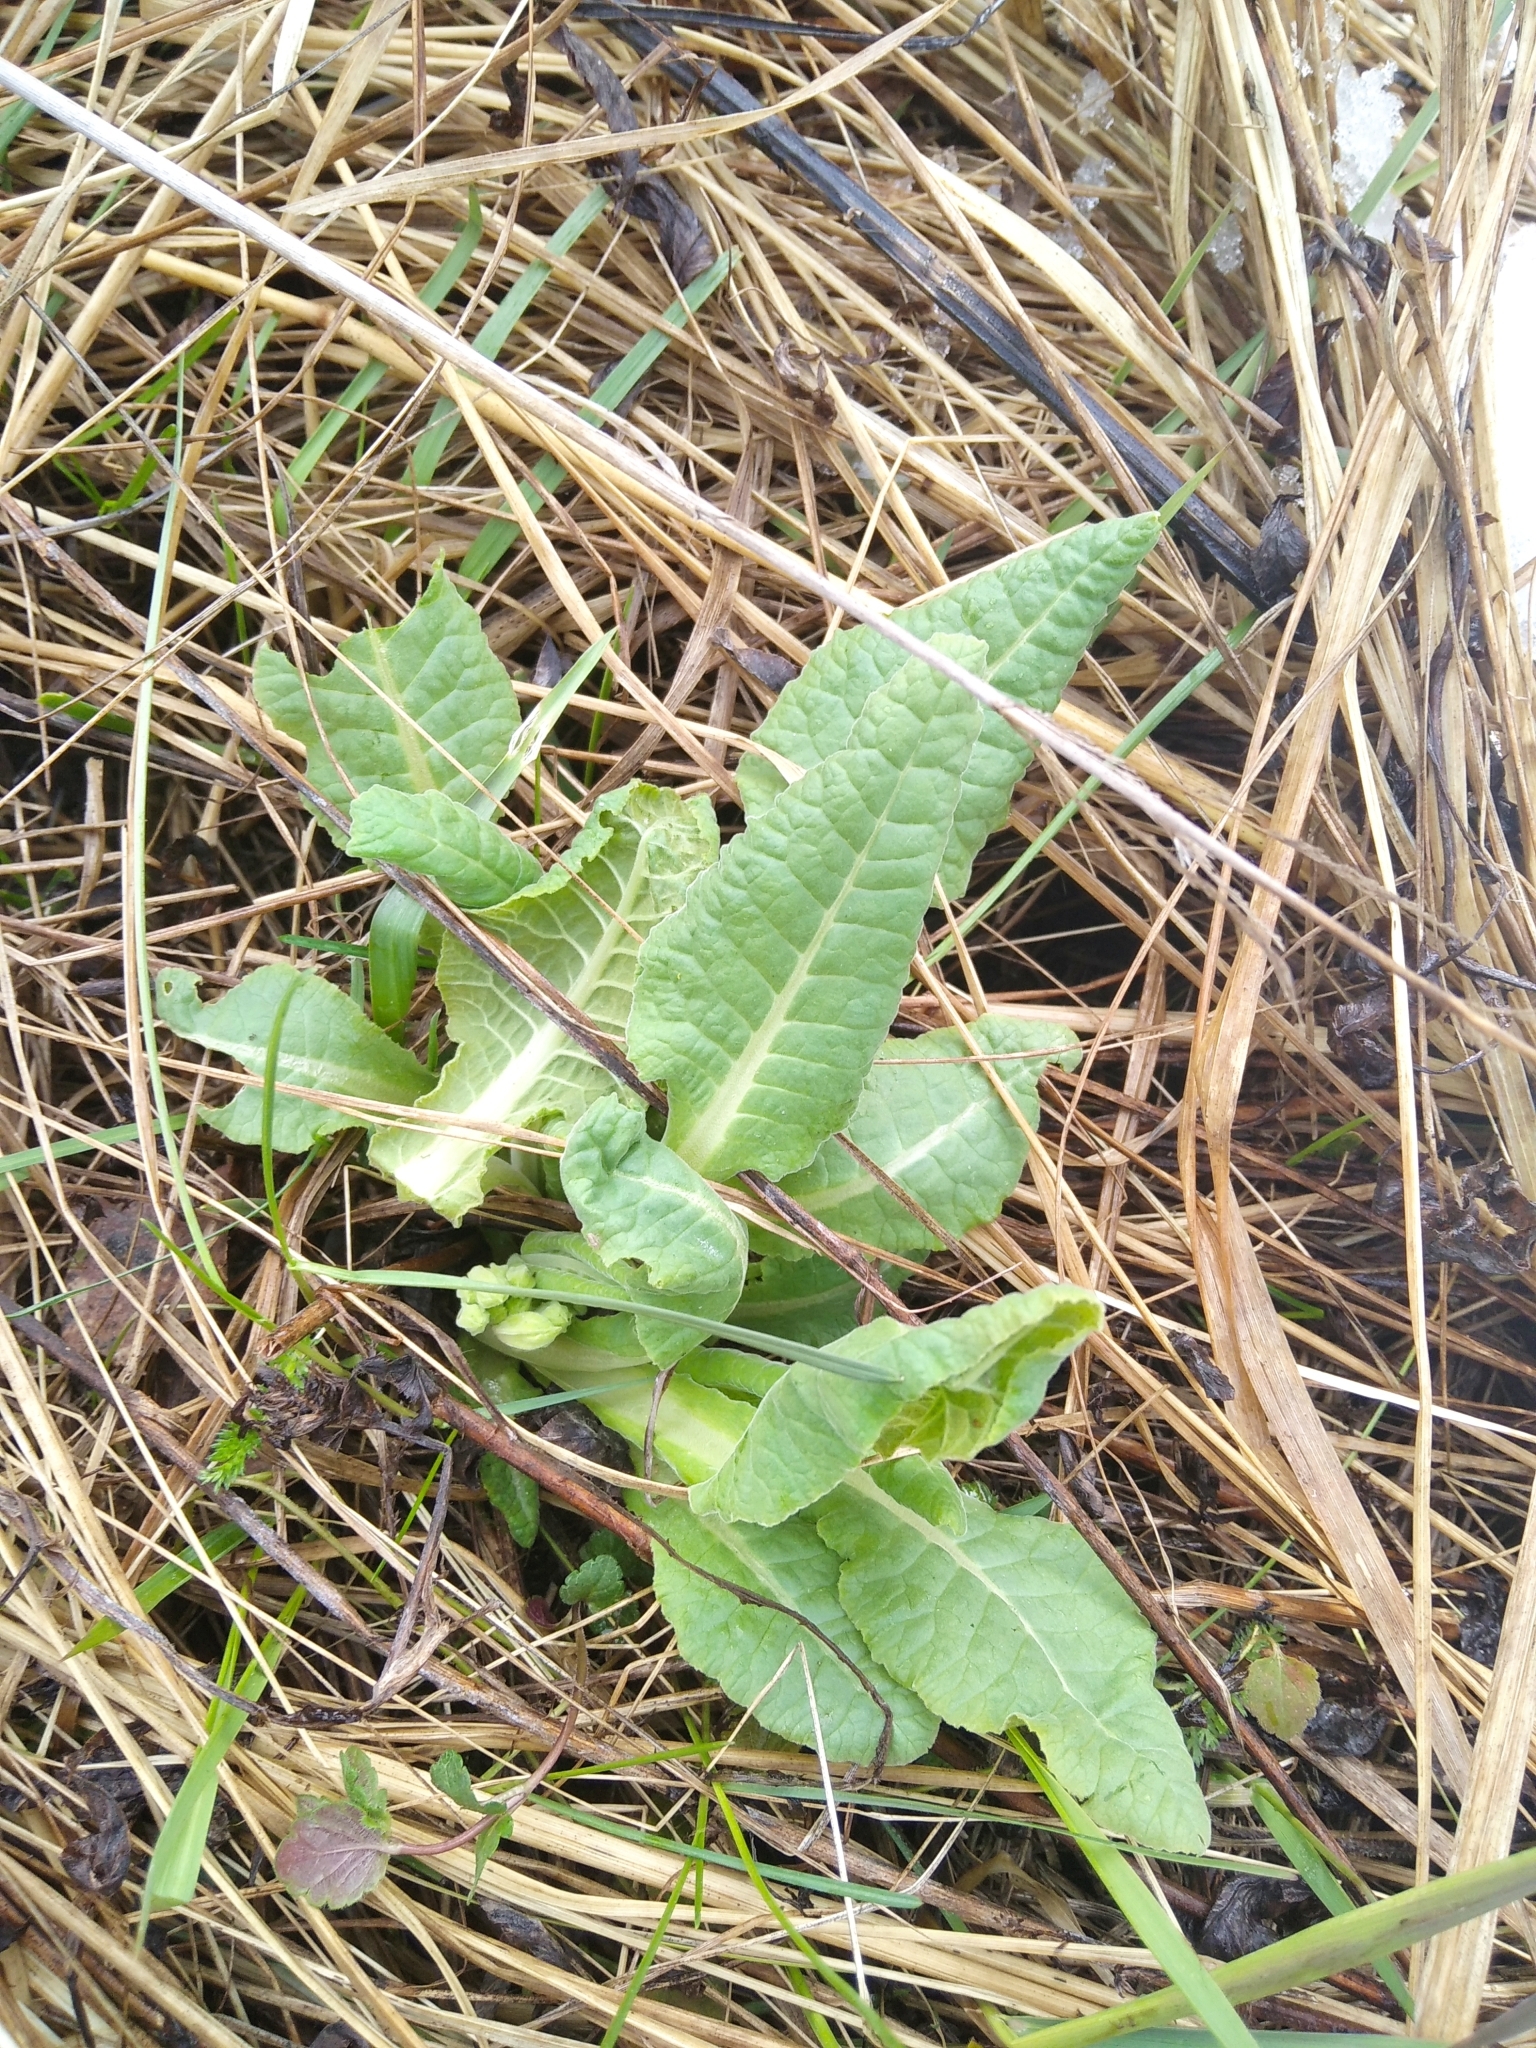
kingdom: Plantae
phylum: Tracheophyta
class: Magnoliopsida
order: Ericales
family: Primulaceae
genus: Primula
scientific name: Primula veris
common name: Cowslip
